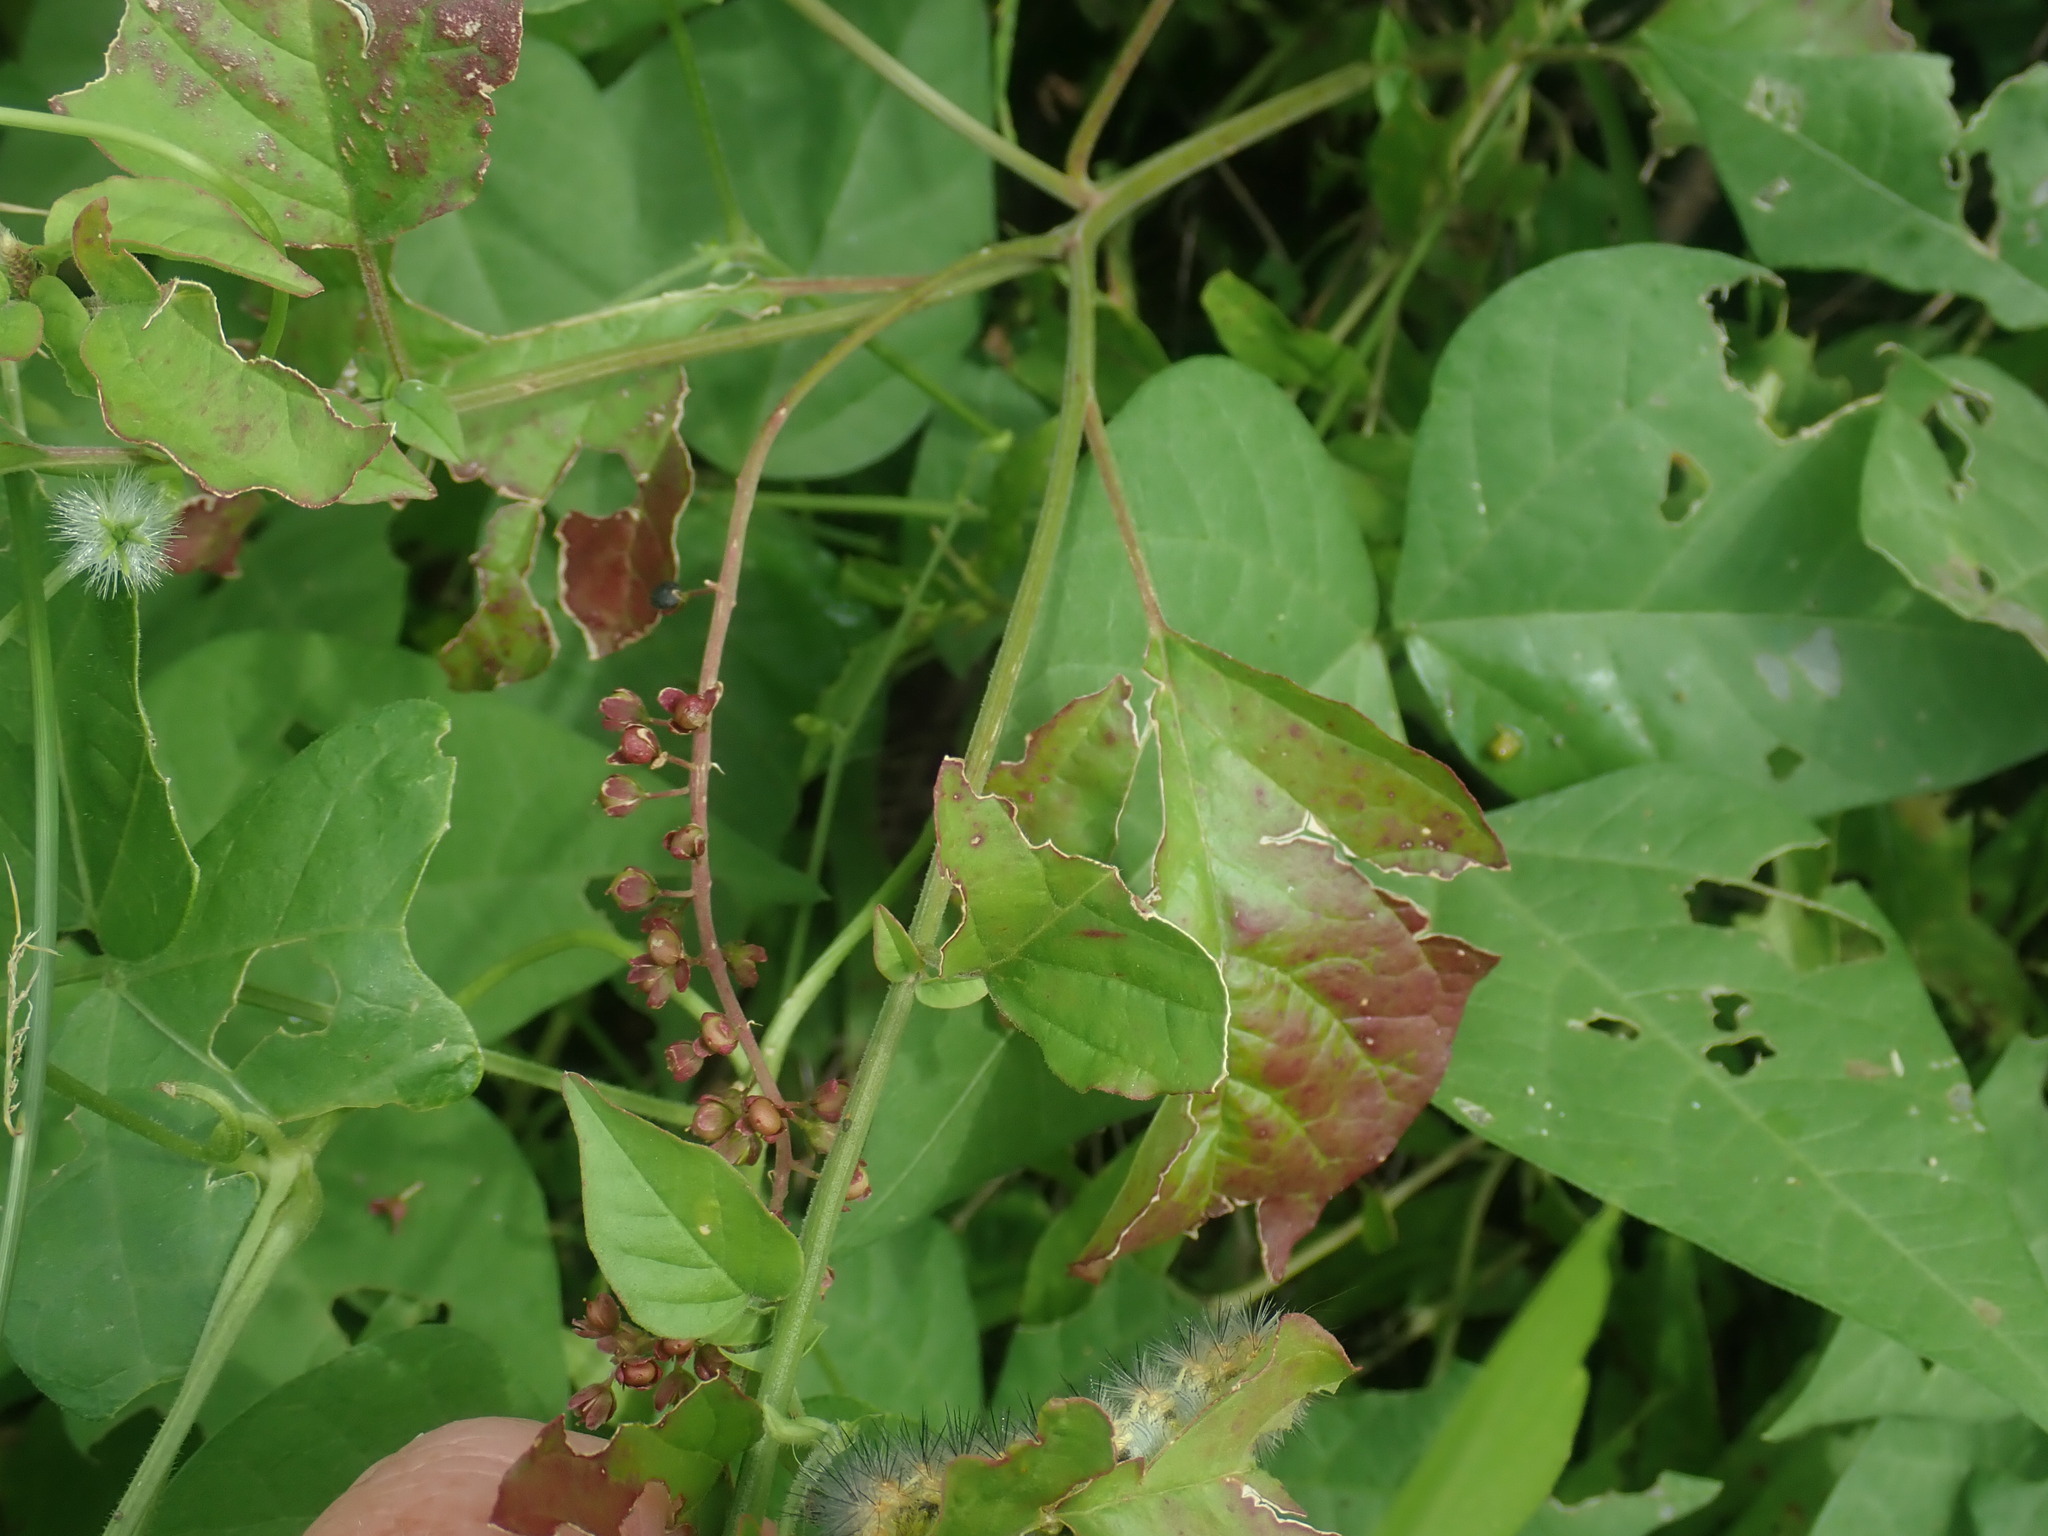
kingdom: Plantae
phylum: Tracheophyta
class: Magnoliopsida
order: Caryophyllales
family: Phytolaccaceae
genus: Rivina
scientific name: Rivina humilis
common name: Rougeplant
